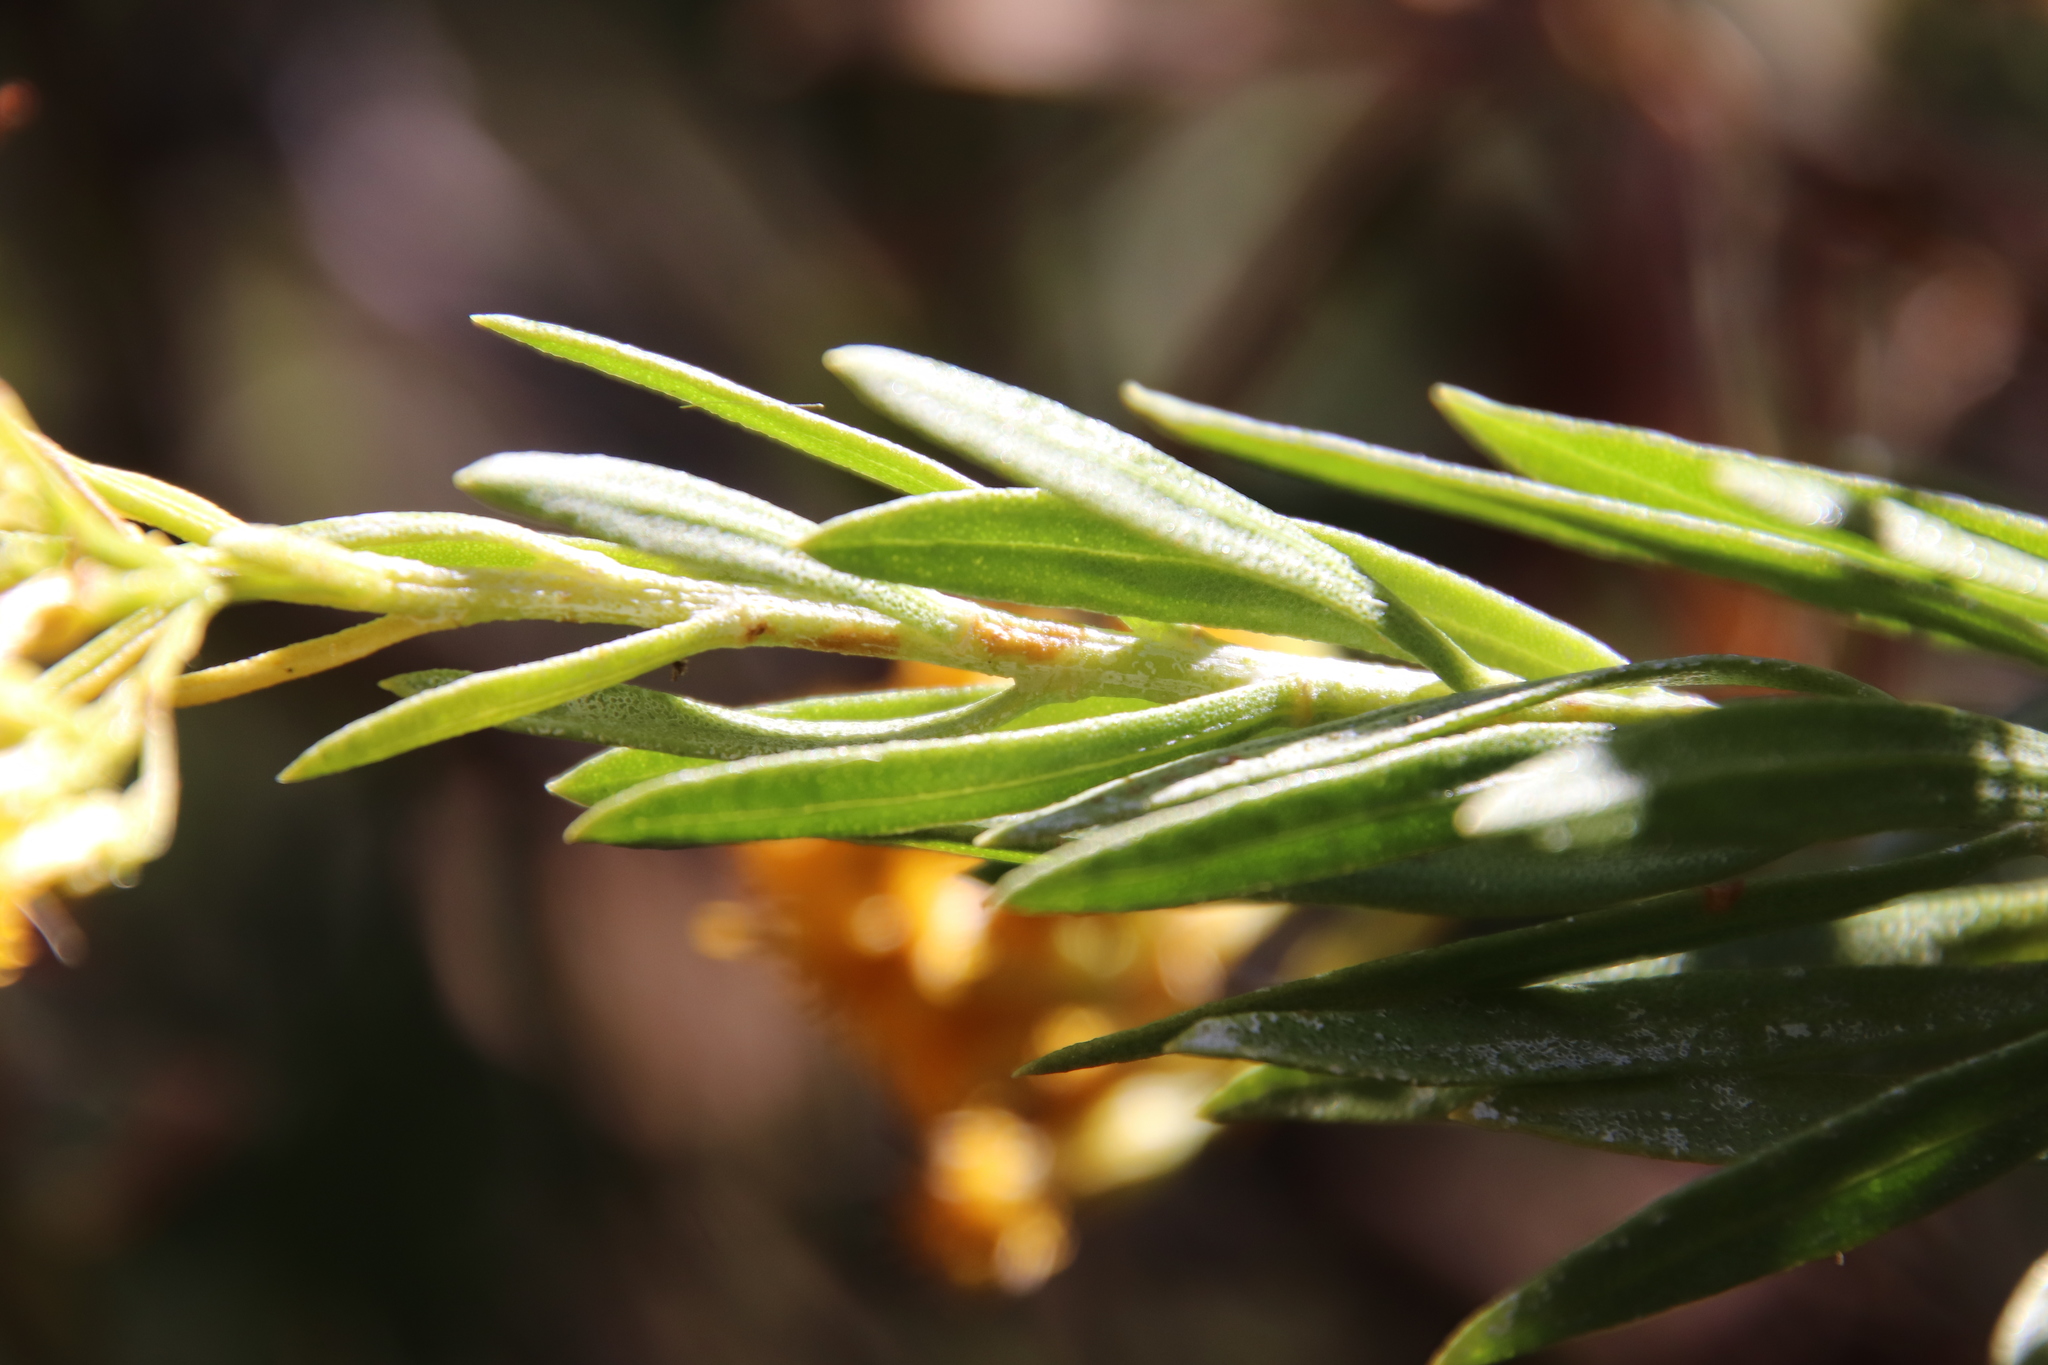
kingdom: Plantae
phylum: Tracheophyta
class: Magnoliopsida
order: Asterales
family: Asteraceae
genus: Ericameria
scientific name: Ericameria parishii
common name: Parish's goldenbush
